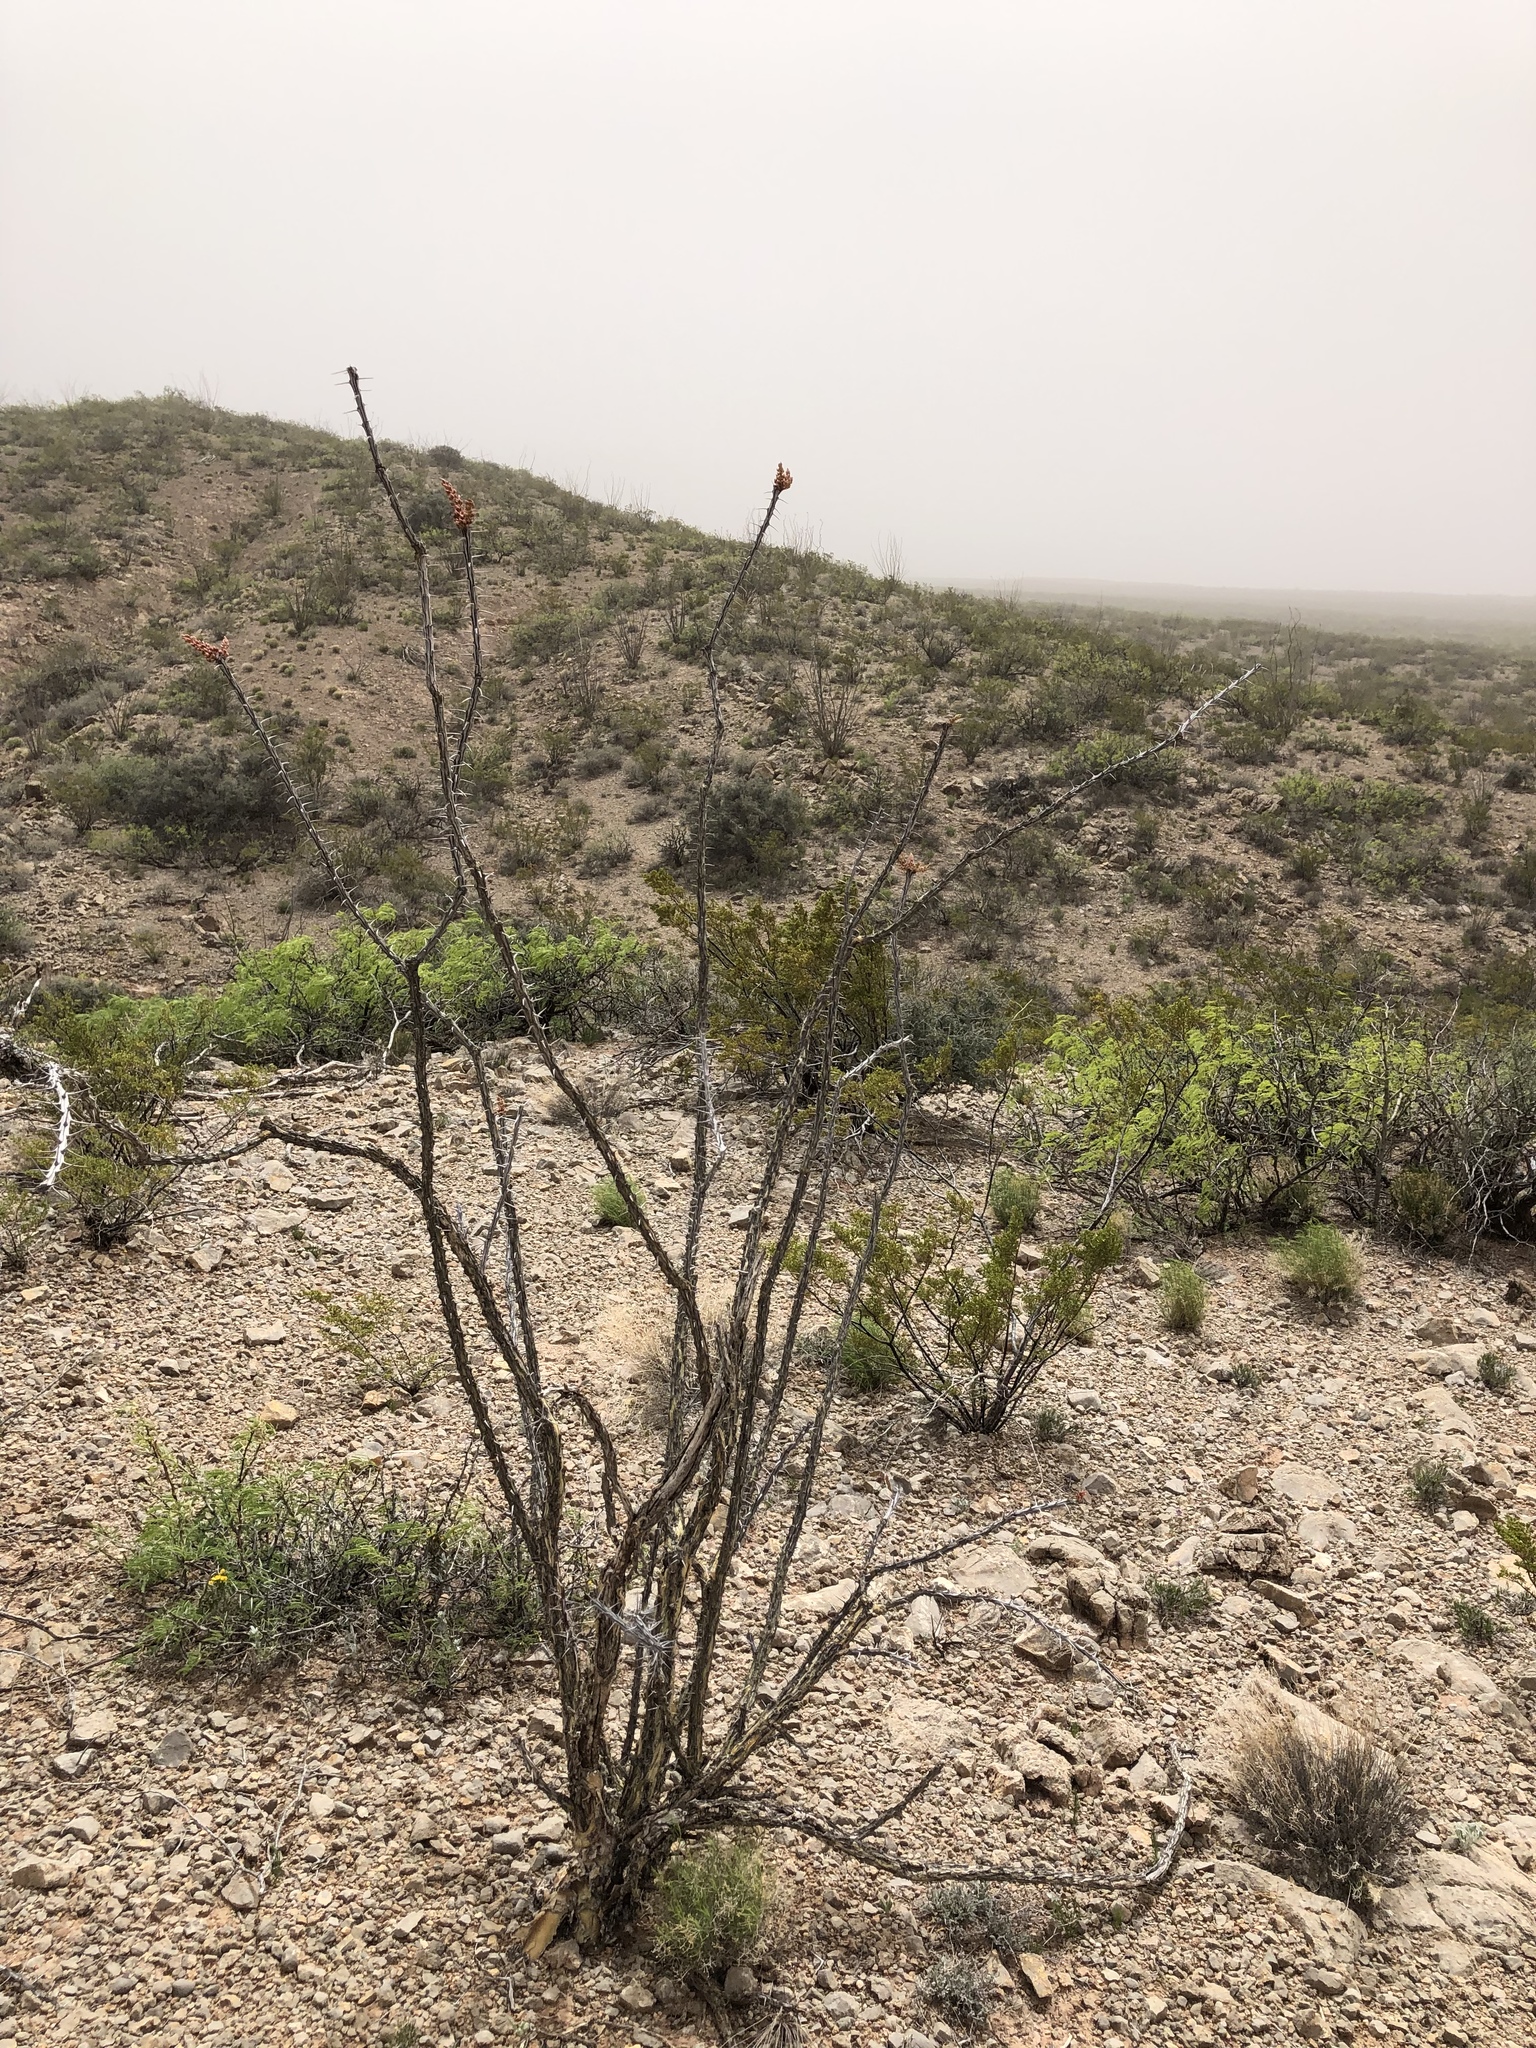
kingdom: Plantae
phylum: Tracheophyta
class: Magnoliopsida
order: Ericales
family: Fouquieriaceae
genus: Fouquieria
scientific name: Fouquieria splendens
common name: Vine-cactus
